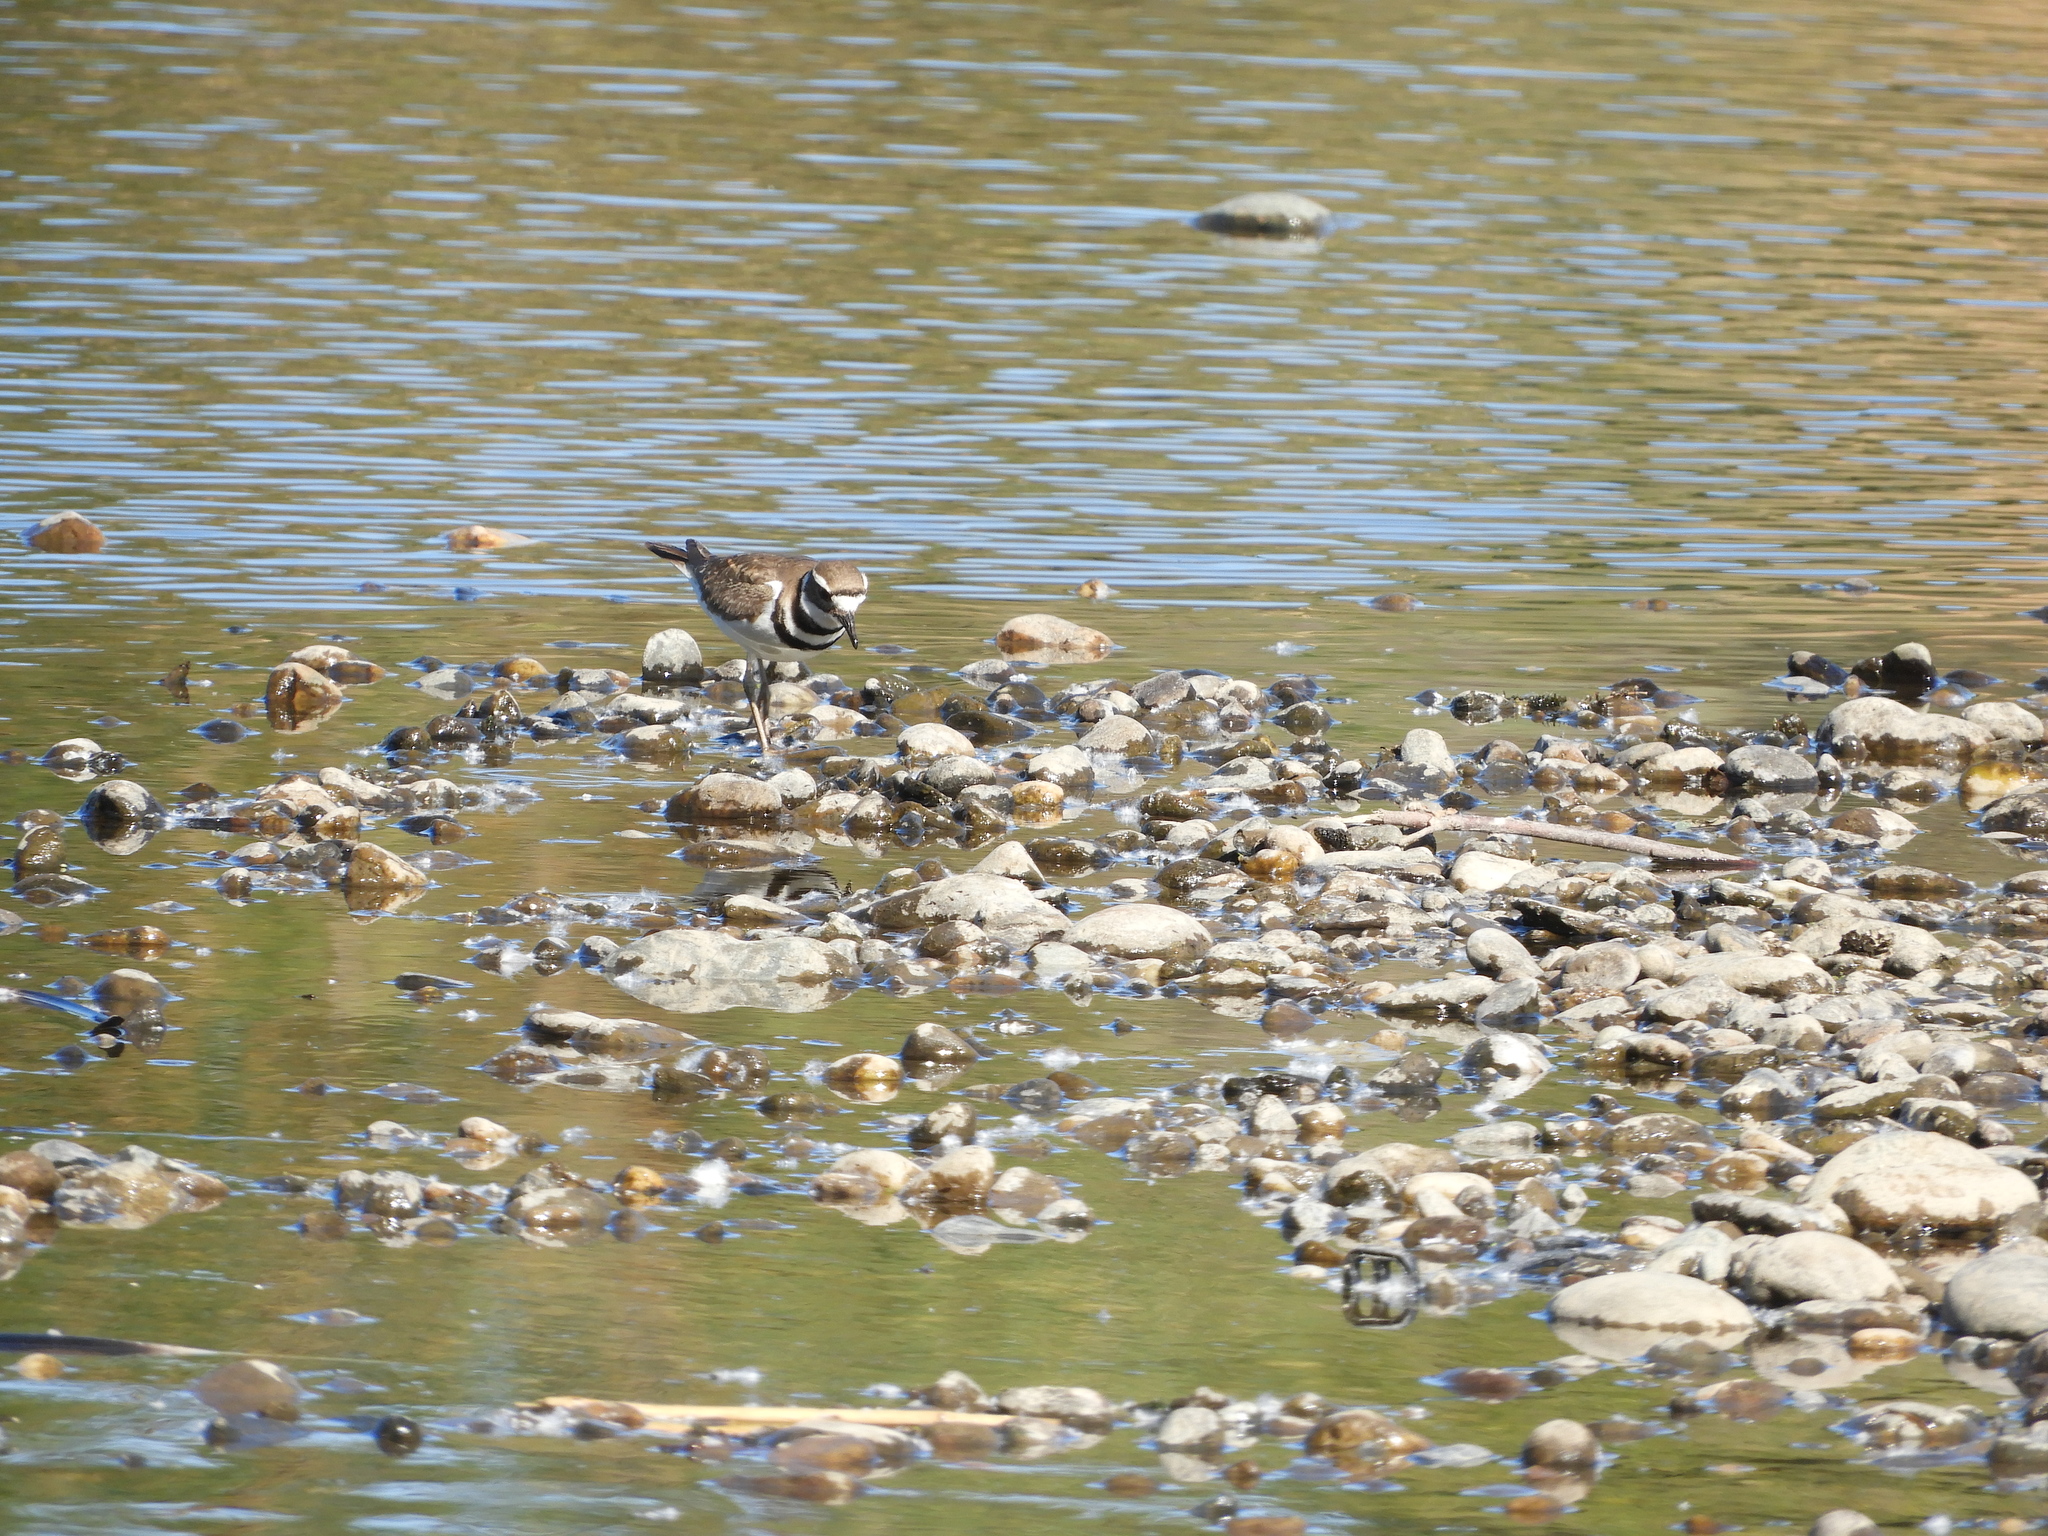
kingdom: Animalia
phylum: Chordata
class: Aves
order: Charadriiformes
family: Charadriidae
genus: Charadrius
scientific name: Charadrius vociferus
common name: Killdeer
